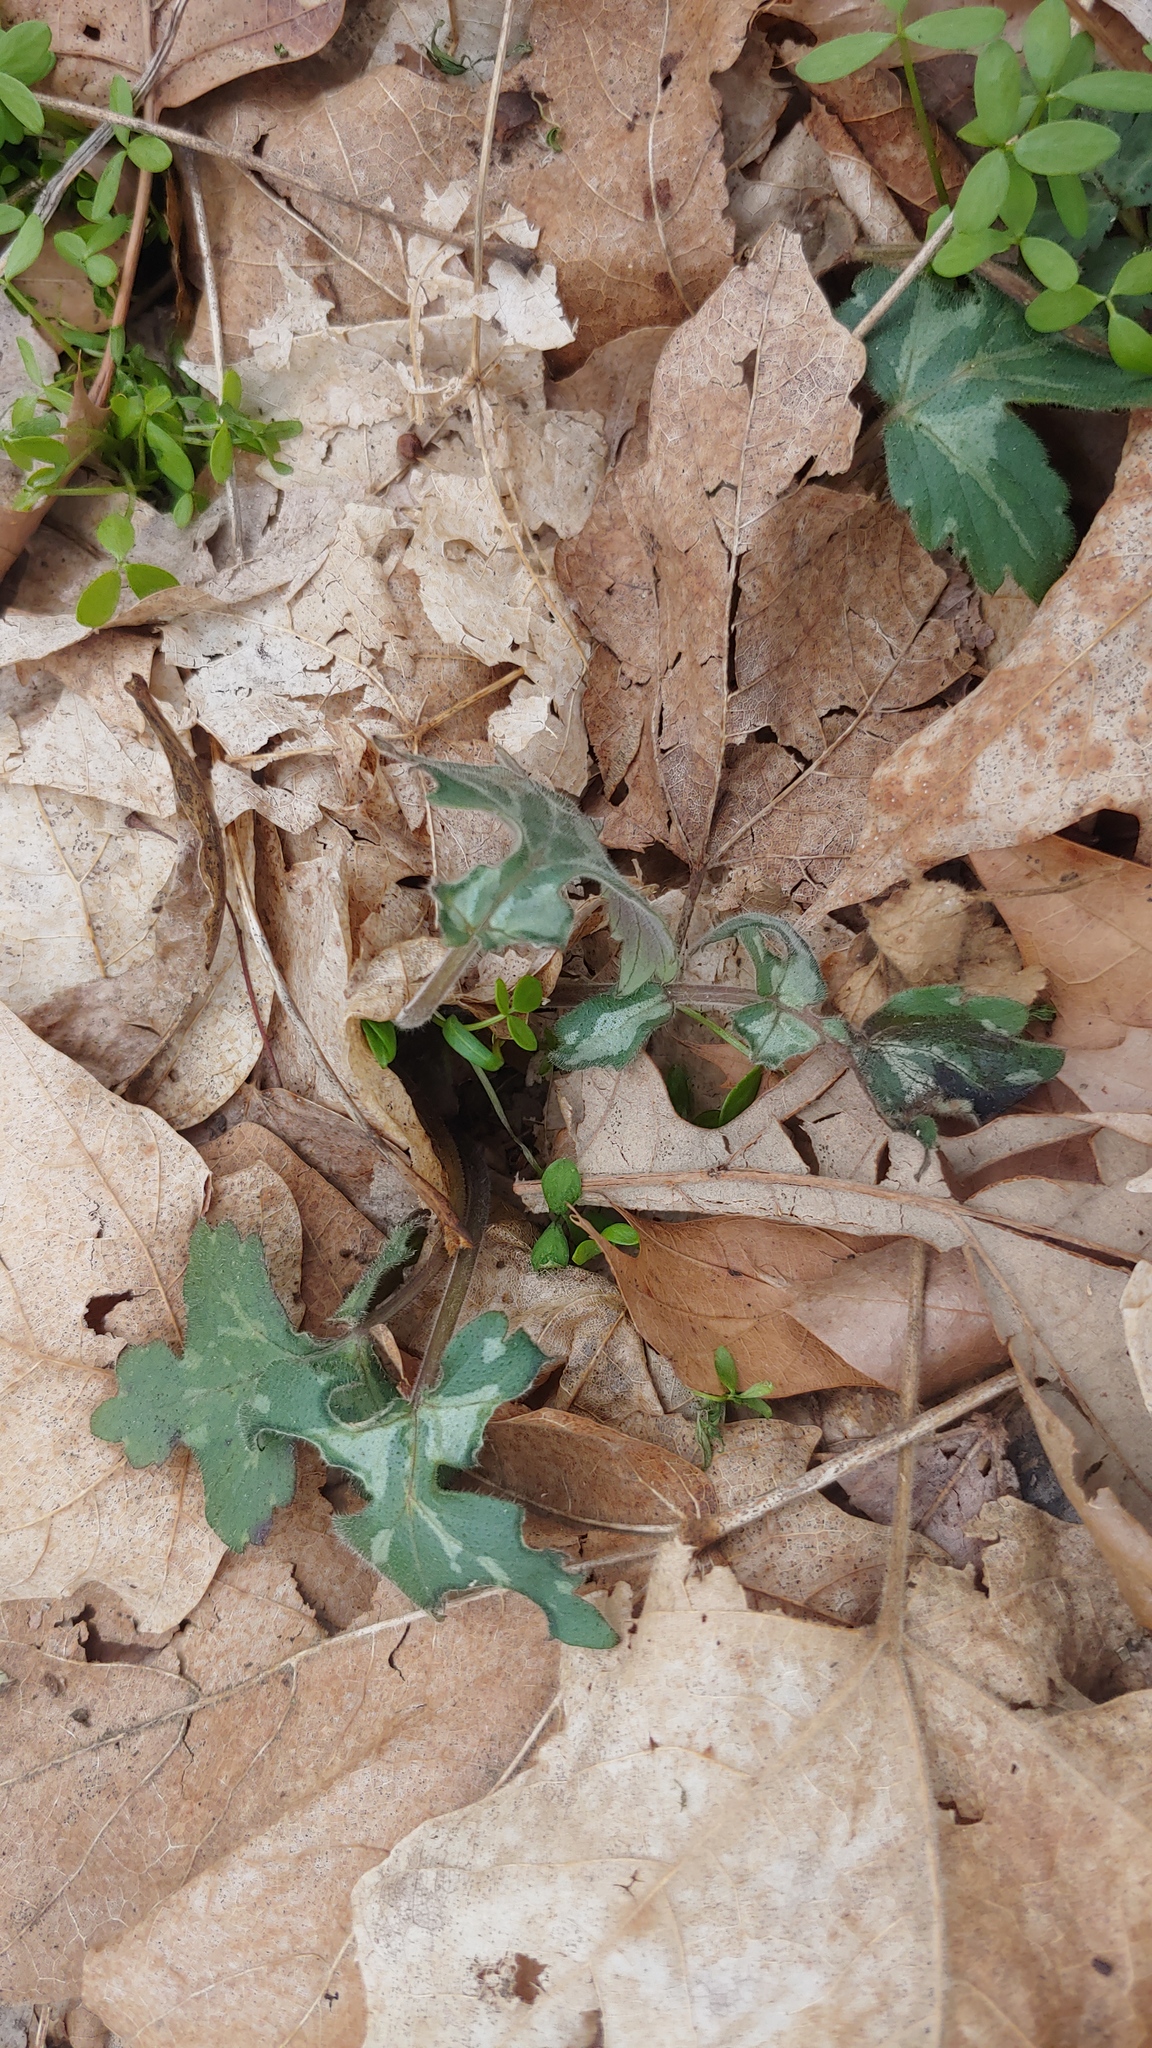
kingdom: Plantae
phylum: Tracheophyta
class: Magnoliopsida
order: Boraginales
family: Hydrophyllaceae
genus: Hydrophyllum
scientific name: Hydrophyllum appendiculatum
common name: Appendaged waterleaf
